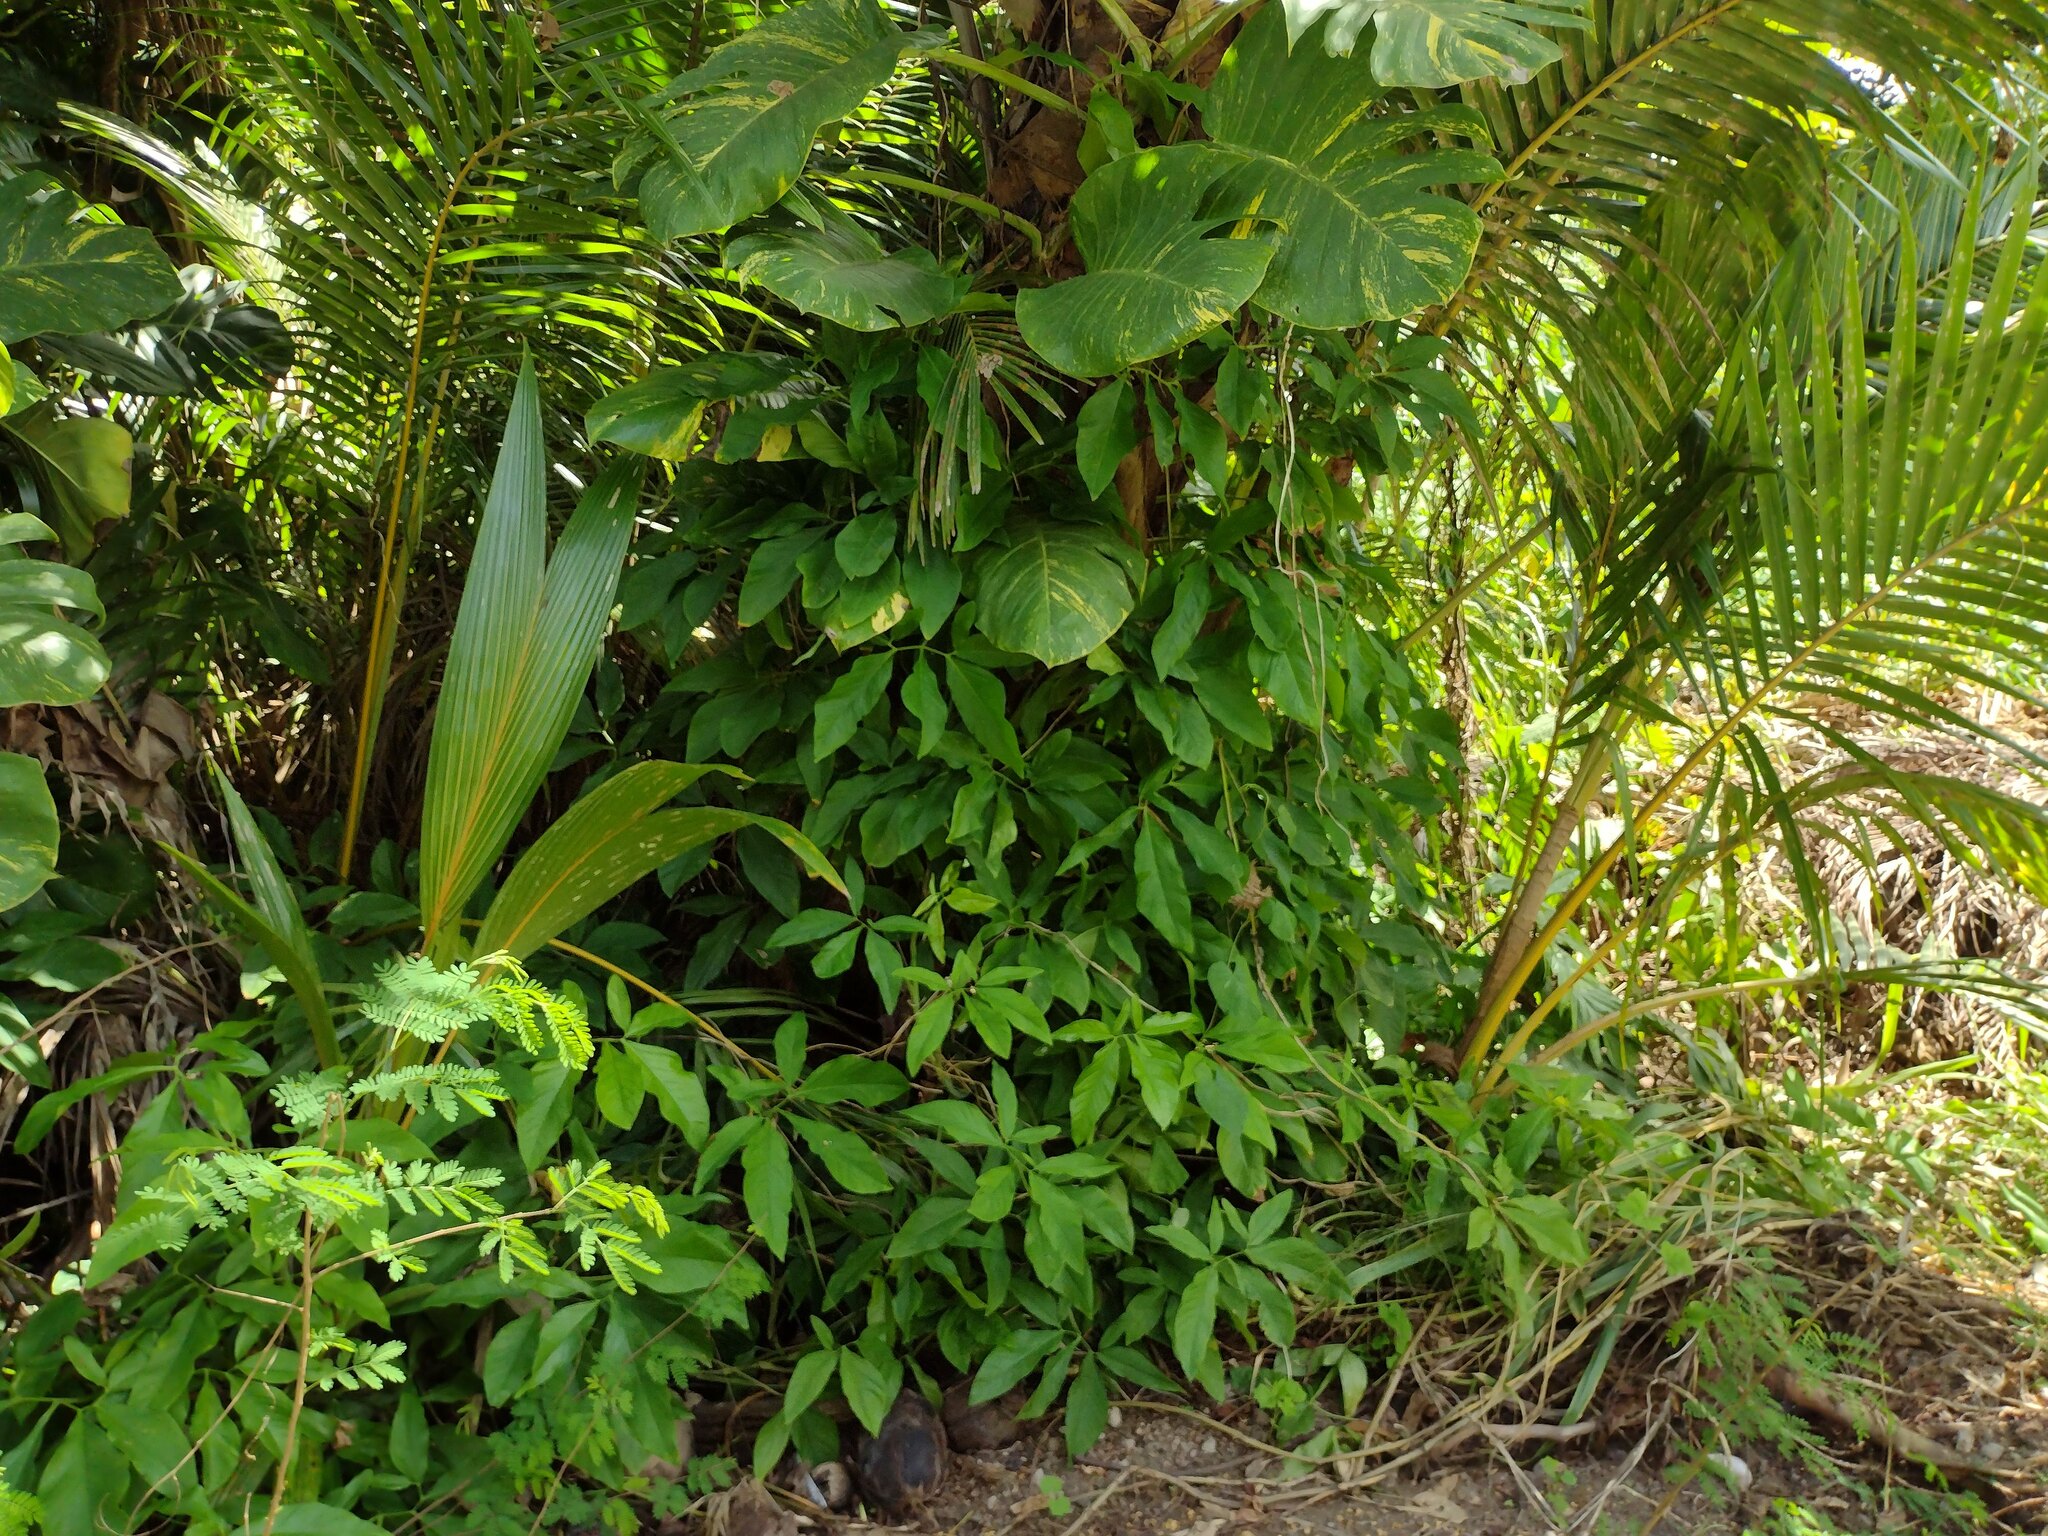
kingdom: Plantae
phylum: Tracheophyta
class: Liliopsida
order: Alismatales
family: Araceae
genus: Syngonium
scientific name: Syngonium podophyllum
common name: American evergreen
